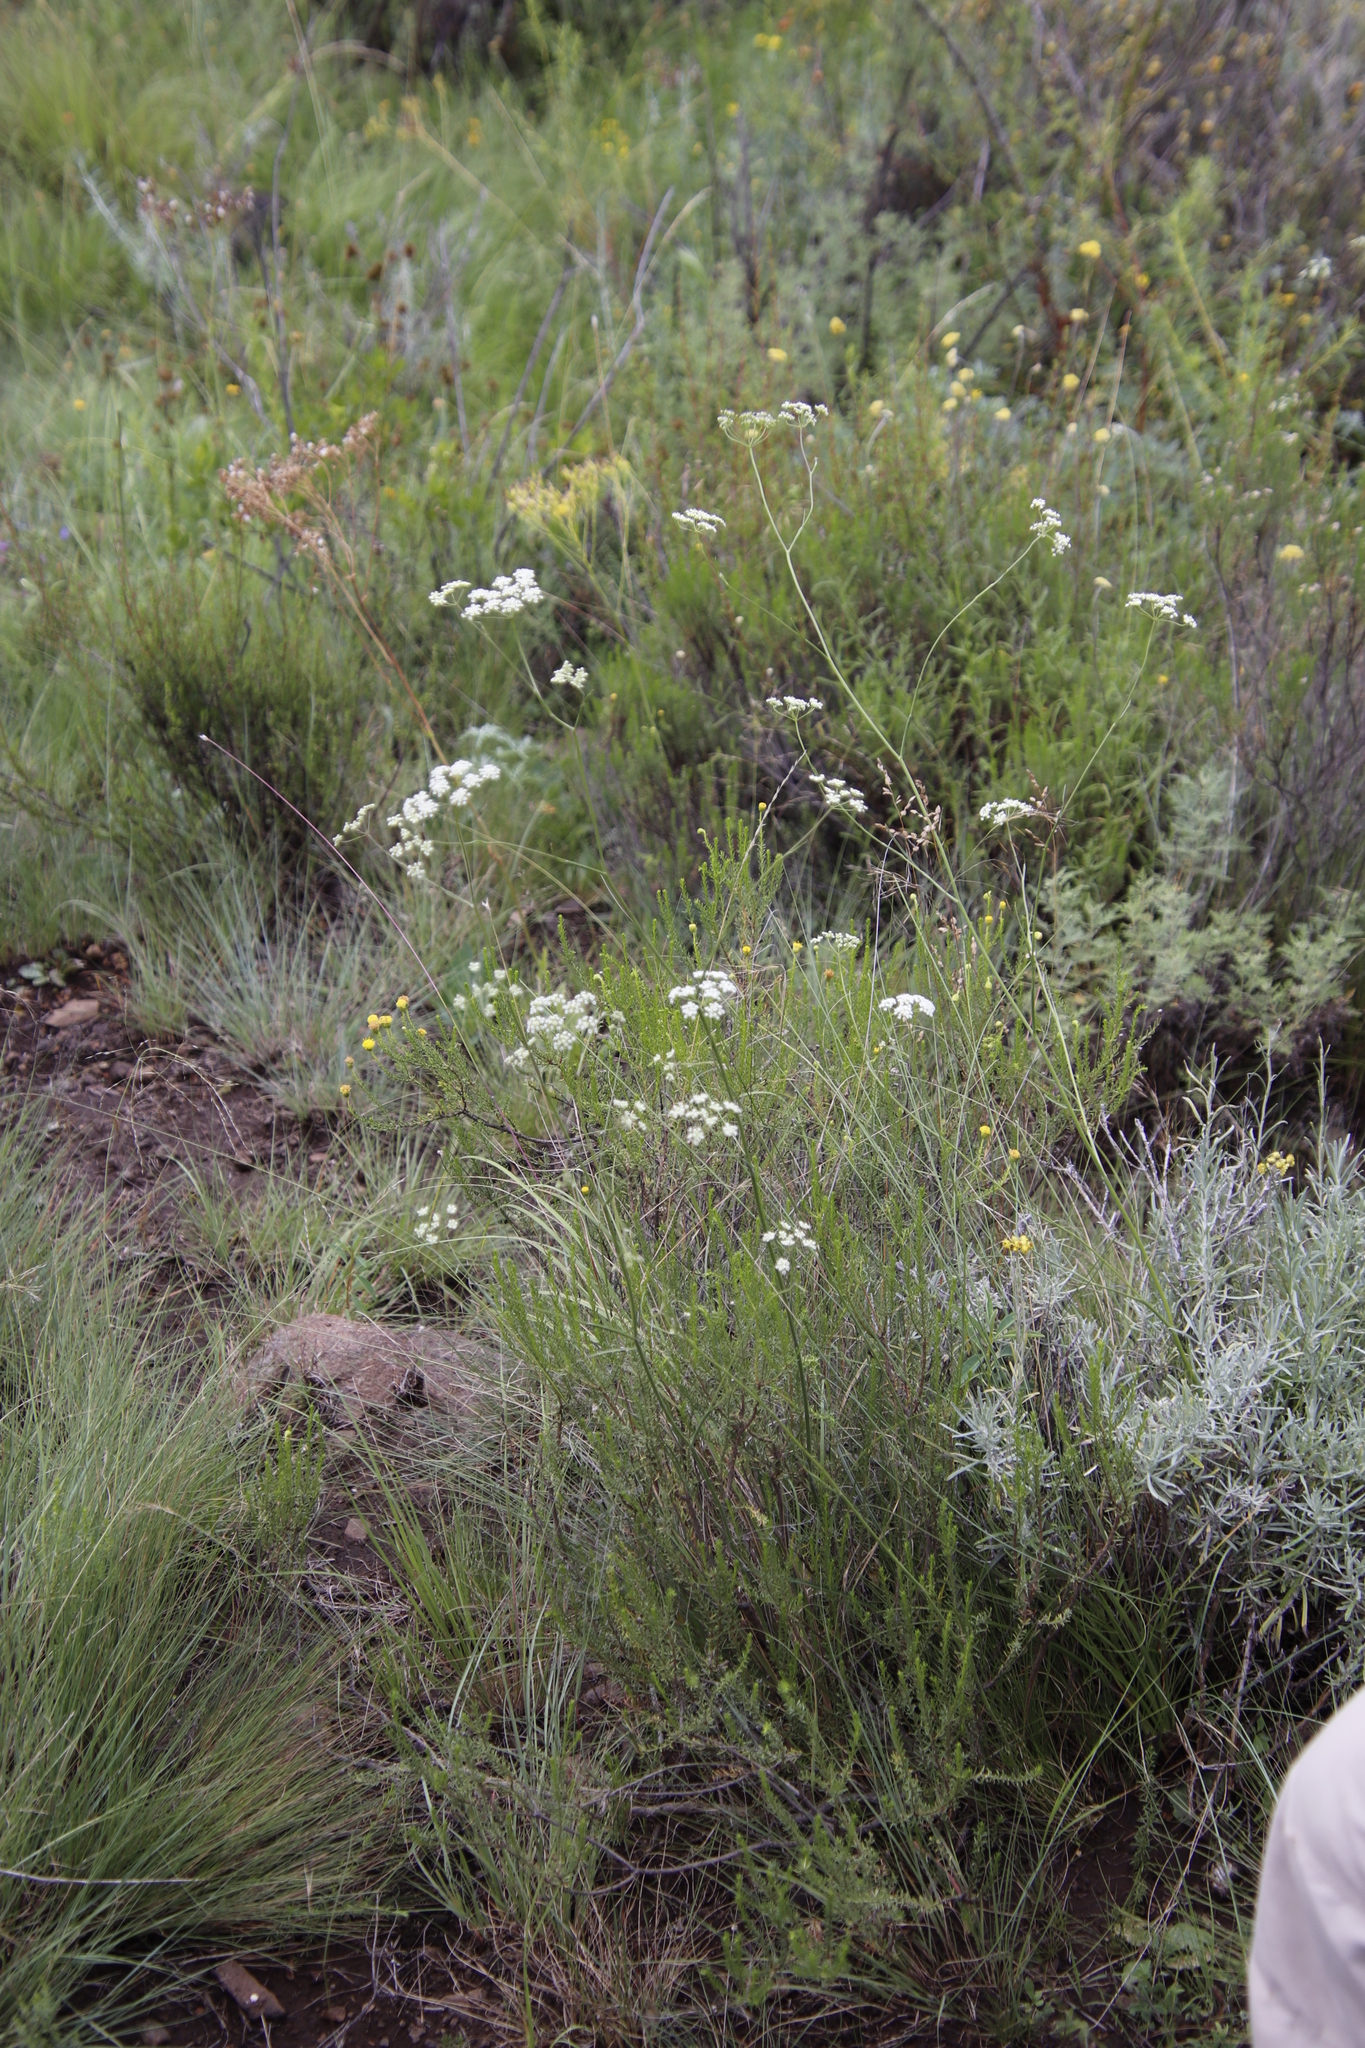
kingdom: Plantae
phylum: Tracheophyta
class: Magnoliopsida
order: Apiales
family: Apiaceae
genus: Pimpinella
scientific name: Pimpinella caffra
